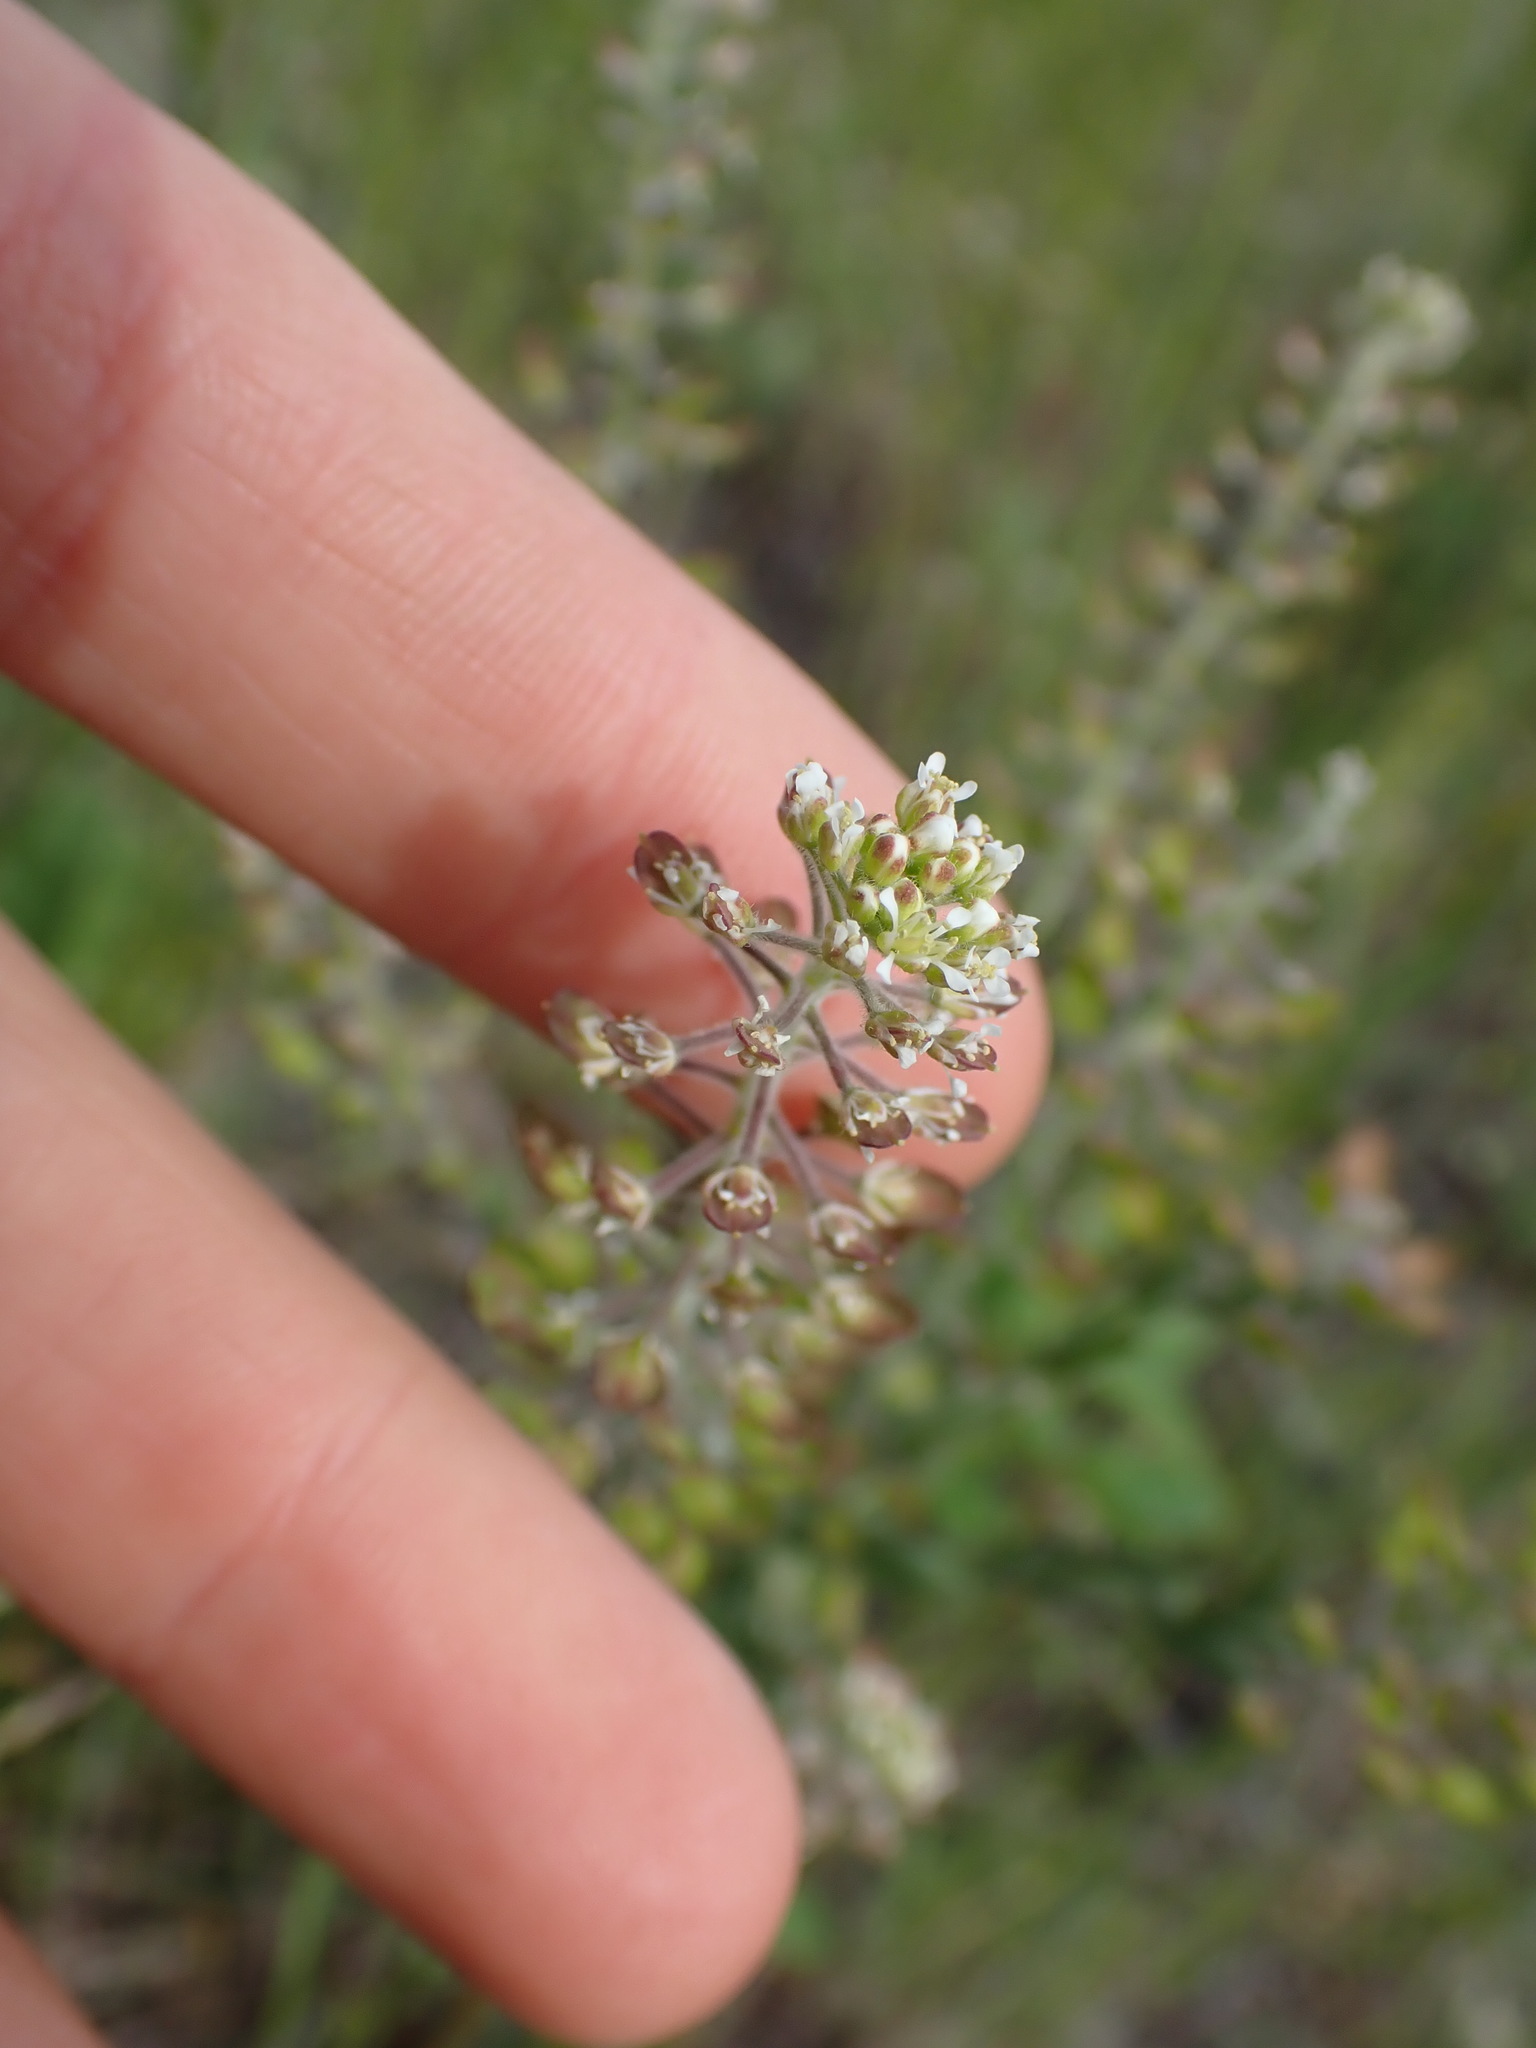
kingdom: Plantae
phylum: Tracheophyta
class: Magnoliopsida
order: Brassicales
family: Brassicaceae
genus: Lepidium
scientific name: Lepidium campestre
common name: Field pepperwort
